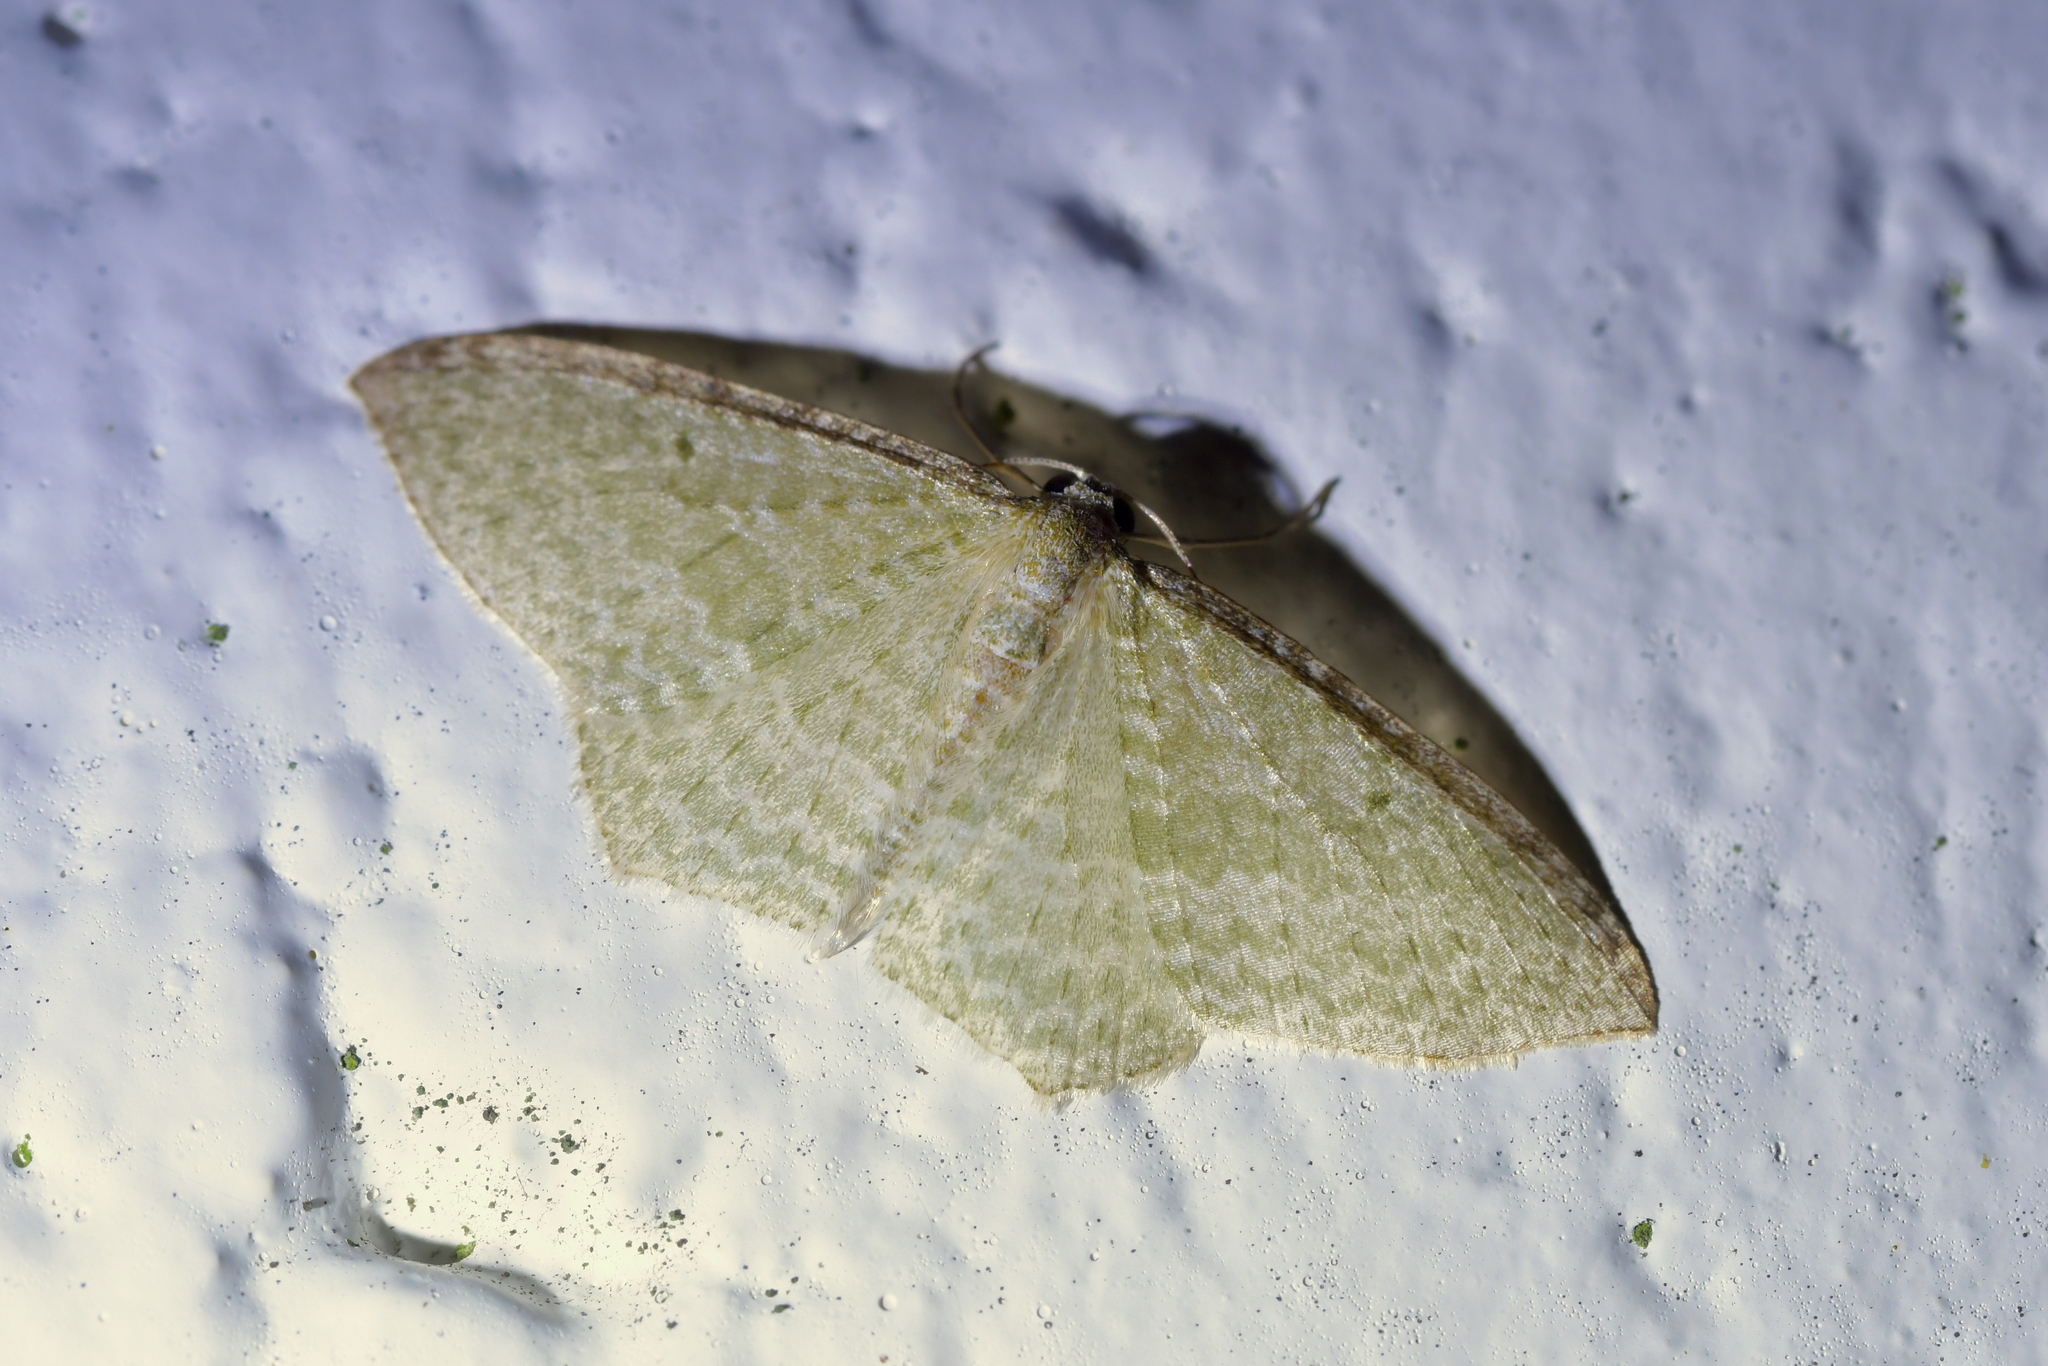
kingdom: Animalia
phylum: Arthropoda
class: Insecta
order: Lepidoptera
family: Geometridae
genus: Poecilasthena
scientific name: Poecilasthena pulchraria
